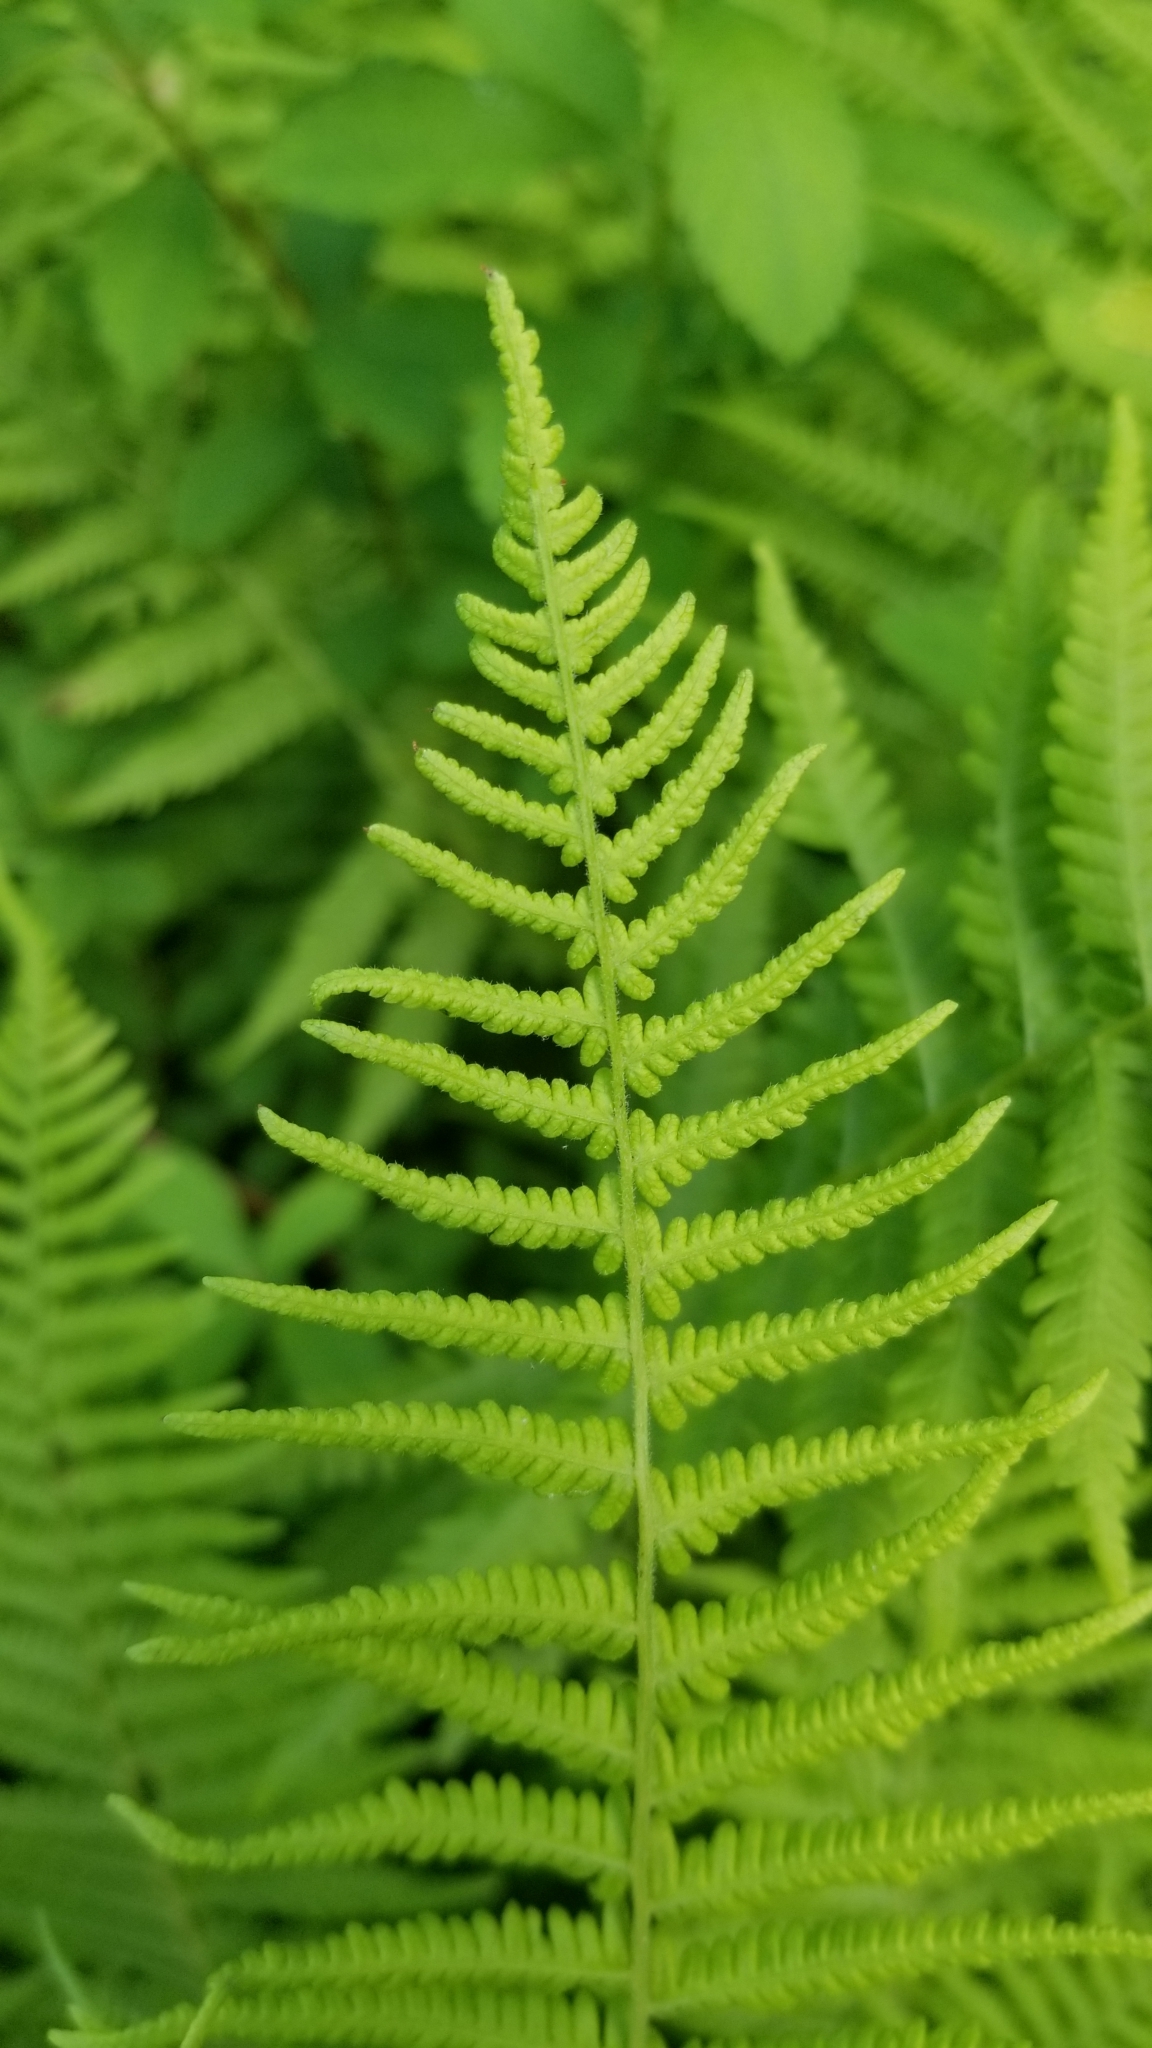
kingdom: Plantae
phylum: Tracheophyta
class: Polypodiopsida
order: Polypodiales
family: Thelypteridaceae
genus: Amauropelta
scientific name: Amauropelta noveboracensis
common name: New york fern
